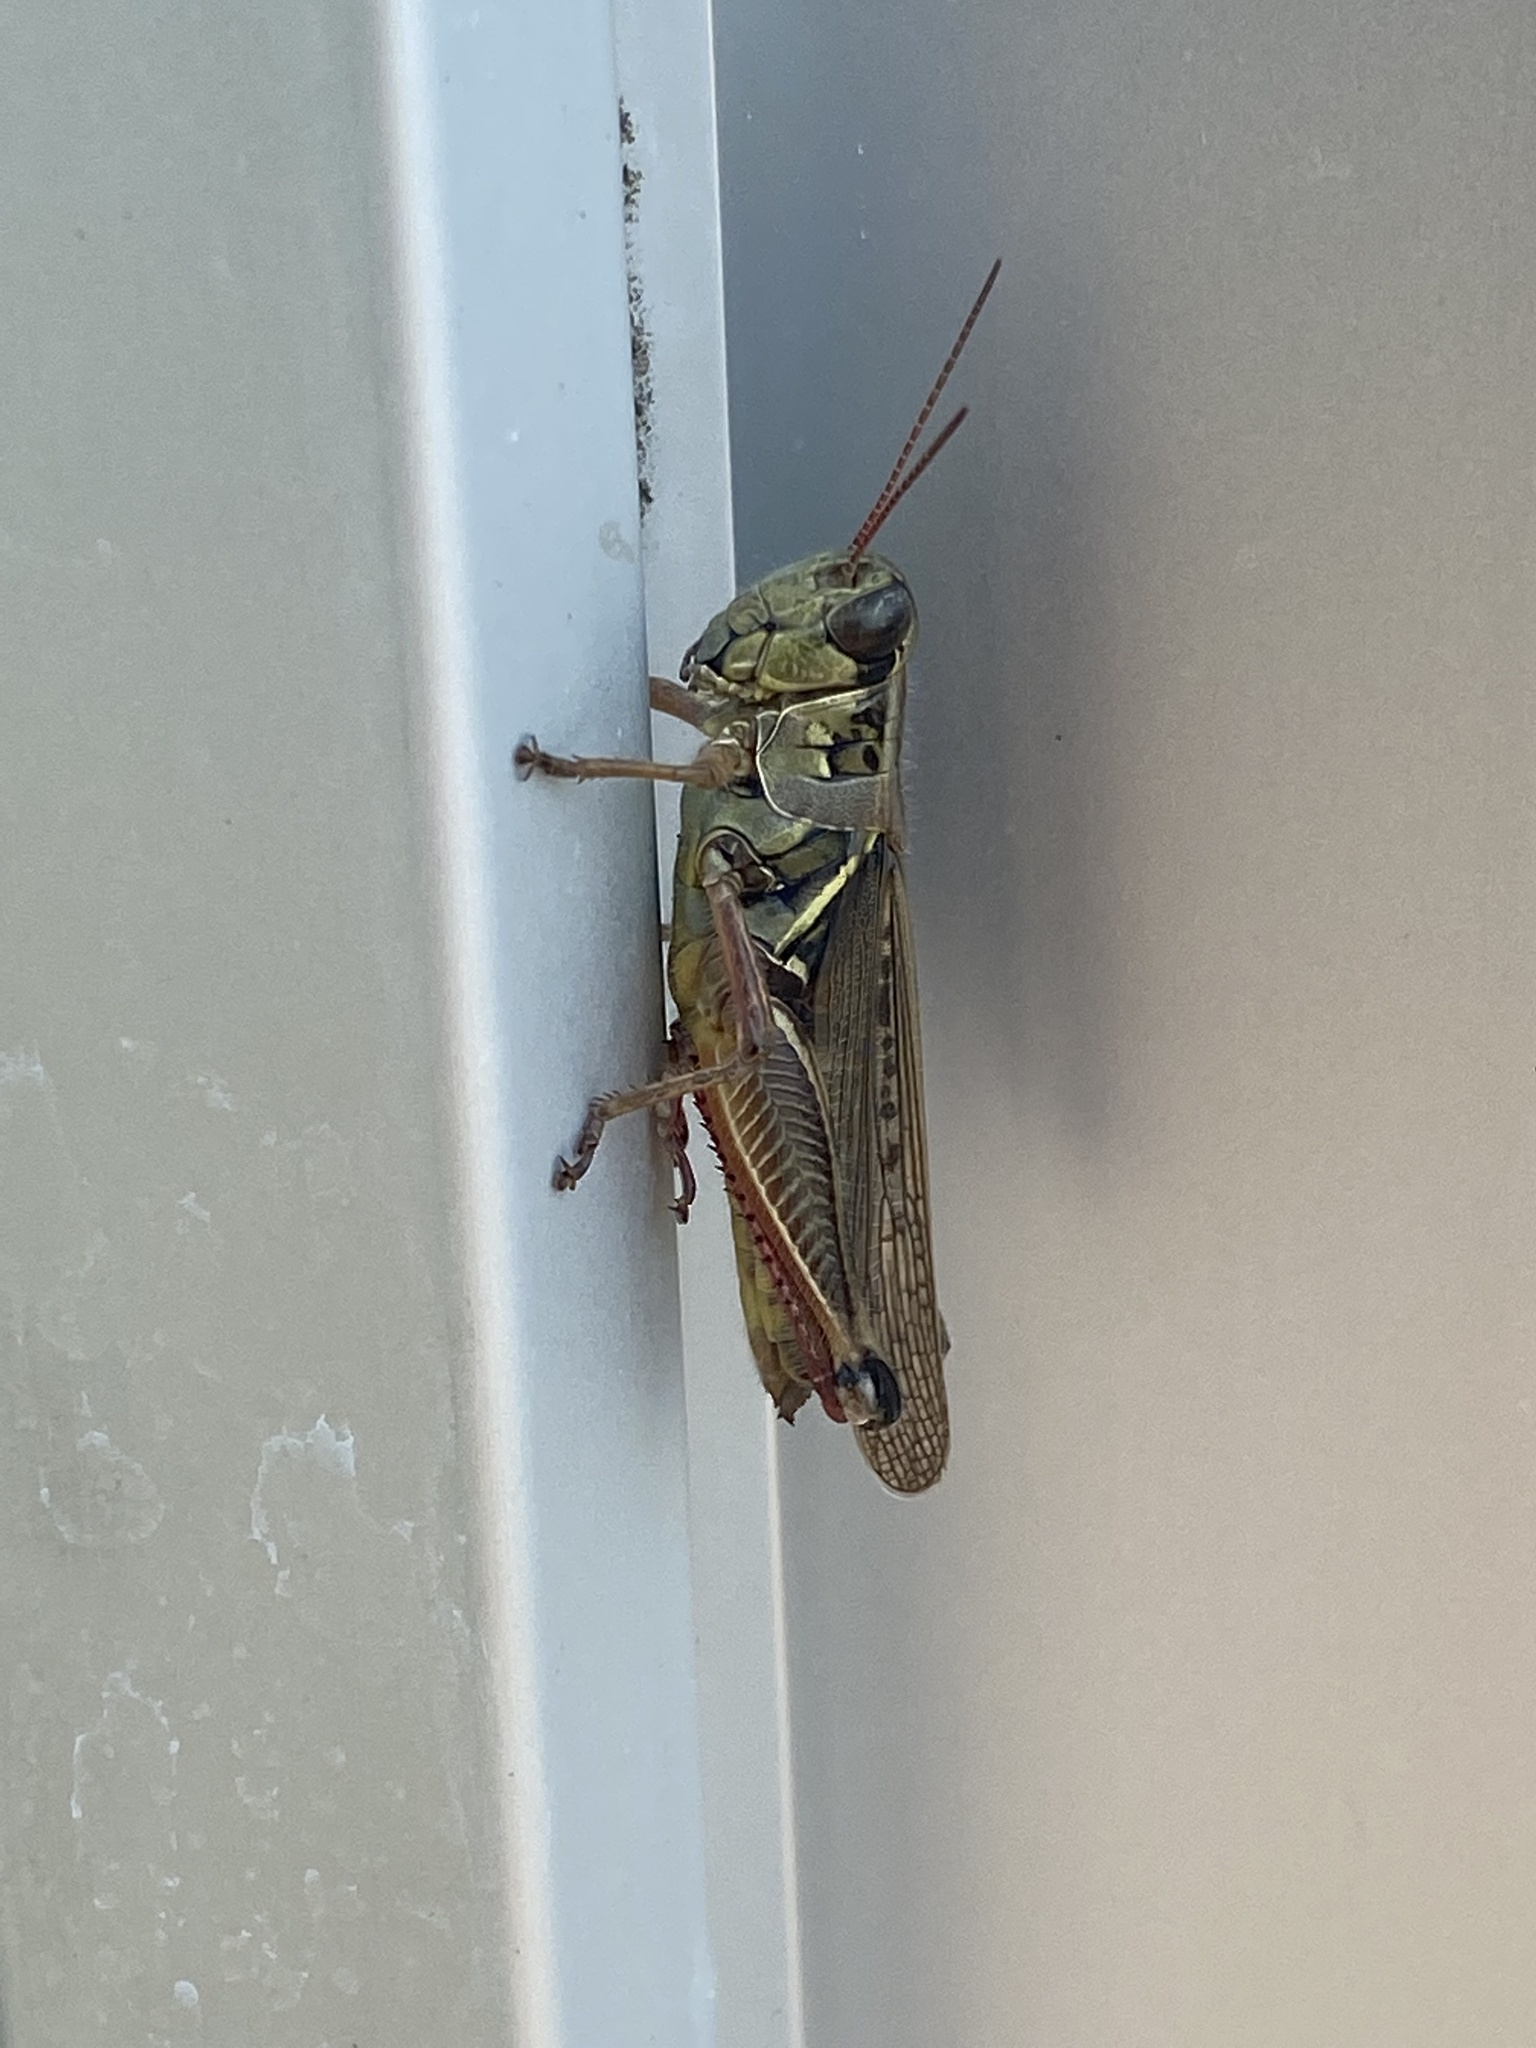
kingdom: Animalia
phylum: Arthropoda
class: Insecta
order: Orthoptera
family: Acrididae
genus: Melanoplus
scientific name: Melanoplus femurrubrum
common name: Red-legged grasshopper
